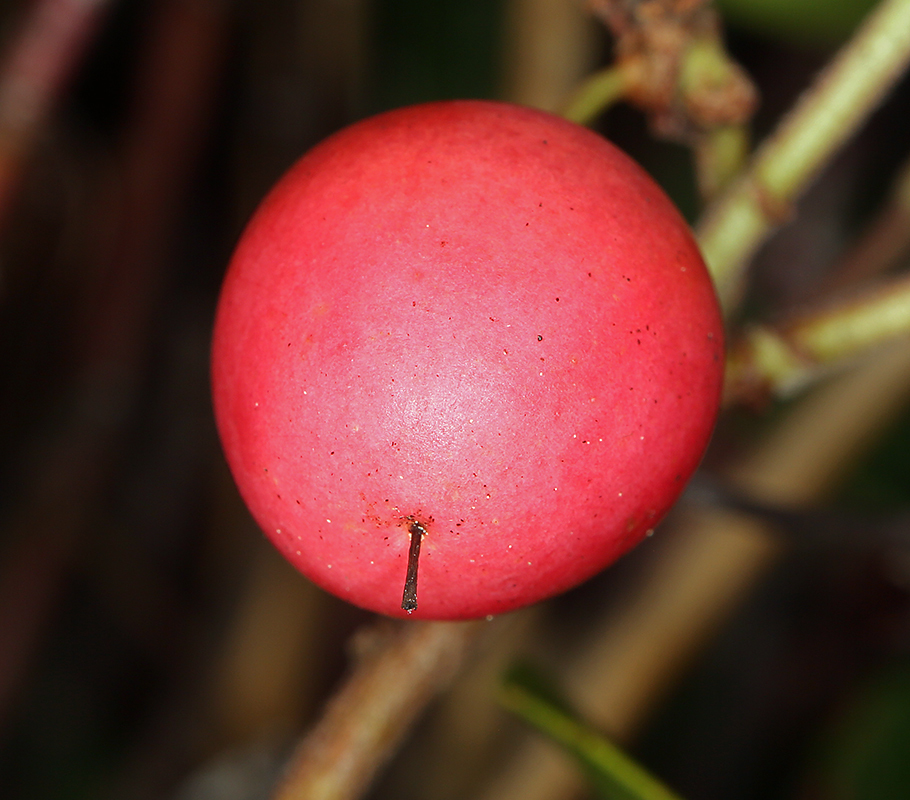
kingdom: Plantae
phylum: Tracheophyta
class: Magnoliopsida
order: Ericales
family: Ericaceae
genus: Arctostaphylos
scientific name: Arctostaphylos uva-ursi
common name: Bearberry
